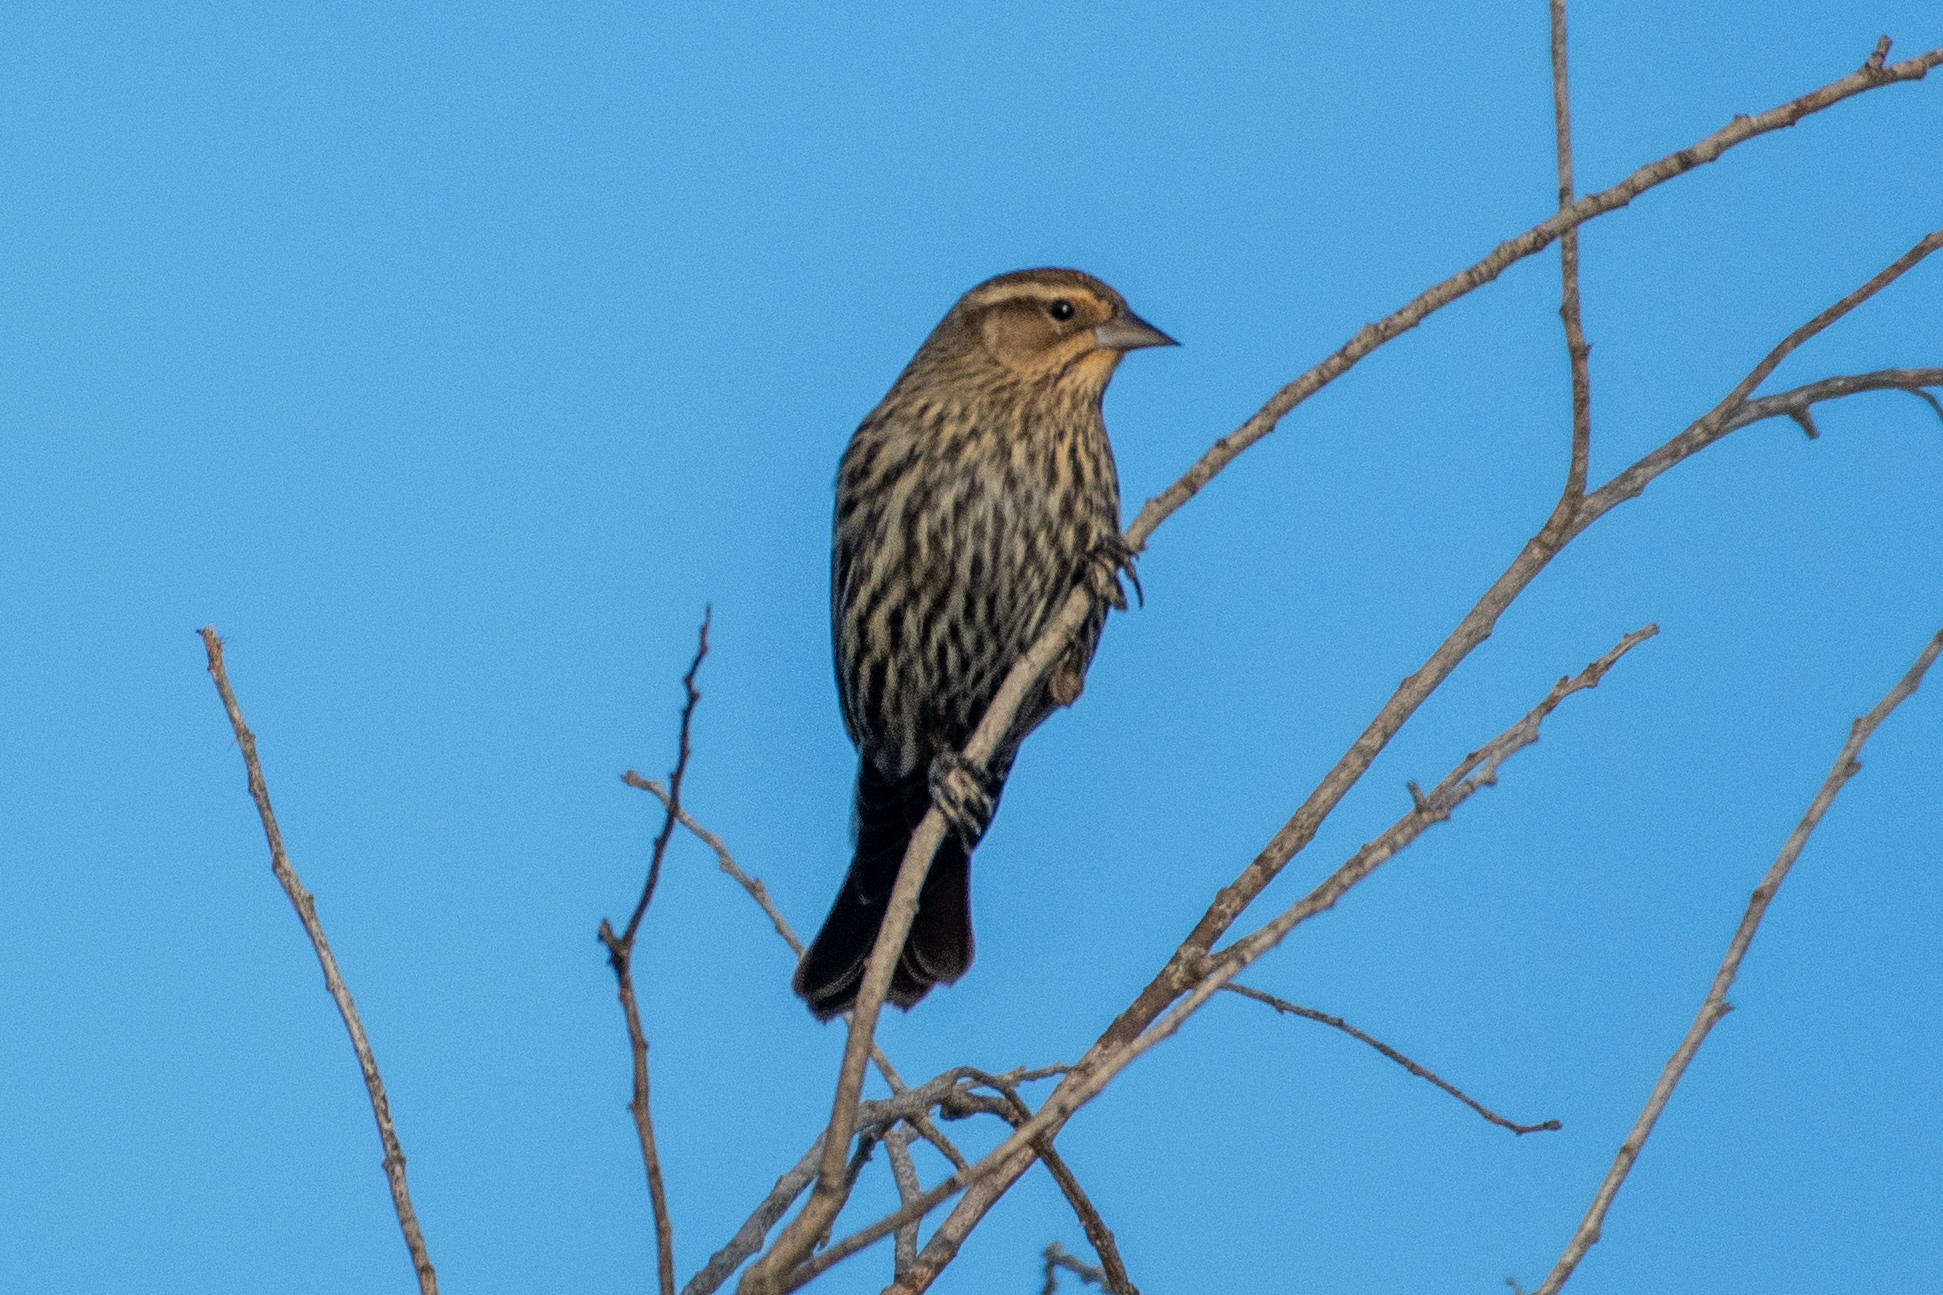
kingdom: Animalia
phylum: Chordata
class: Aves
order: Passeriformes
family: Icteridae
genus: Agelaius
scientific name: Agelaius phoeniceus
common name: Red-winged blackbird
